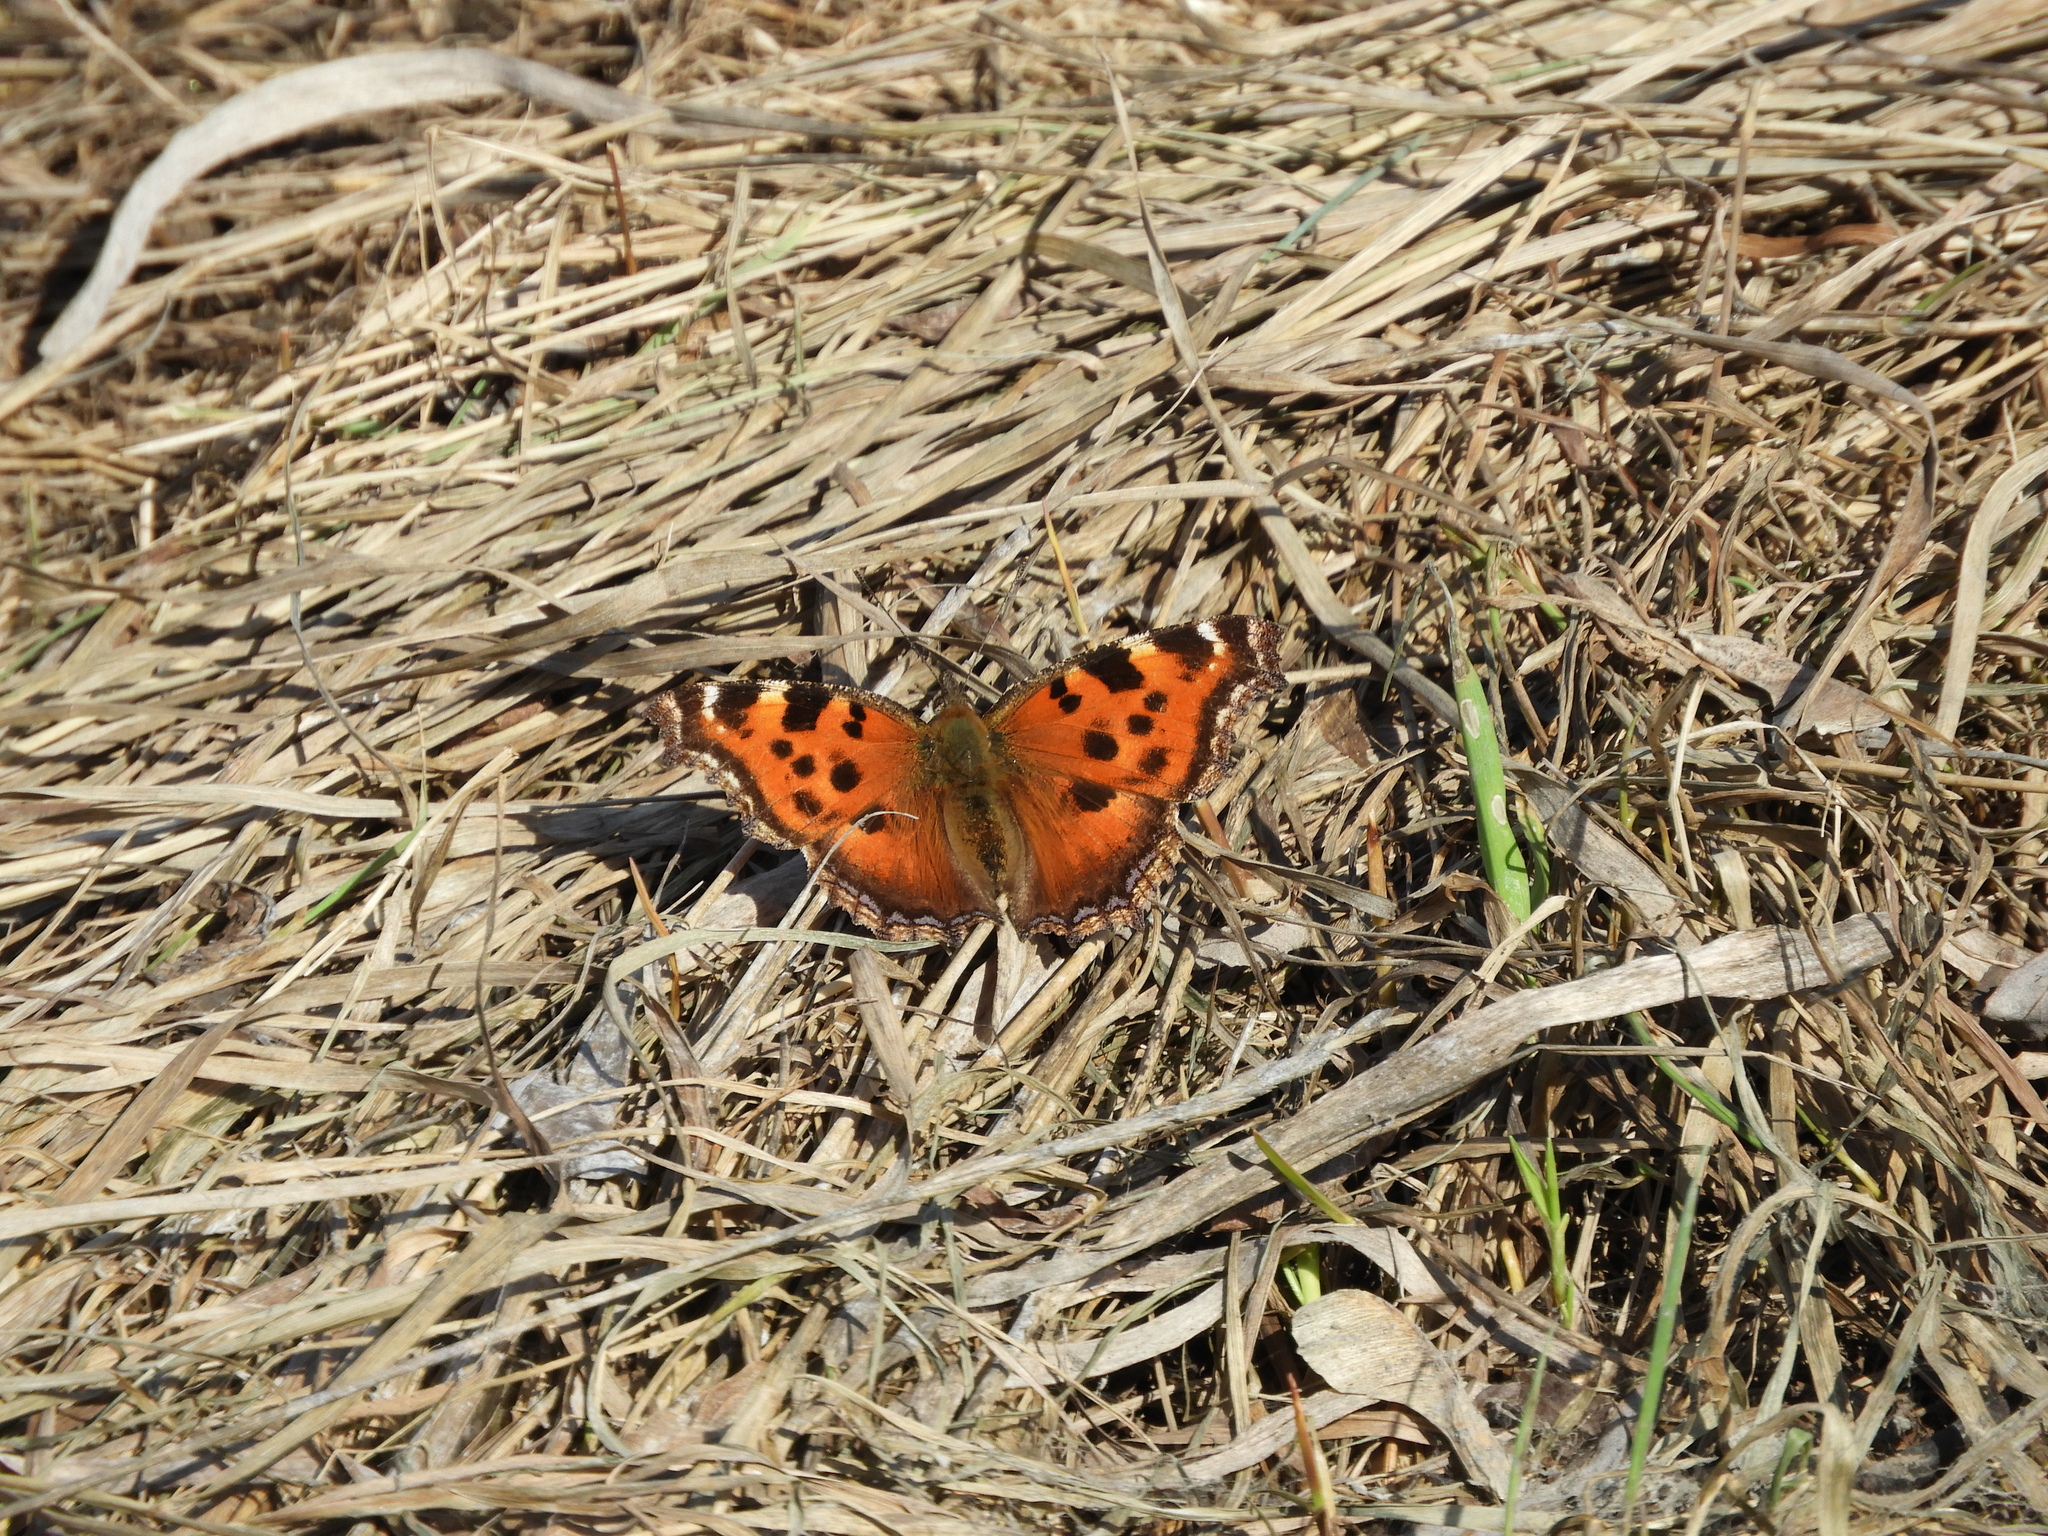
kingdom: Animalia
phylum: Arthropoda
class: Insecta
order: Lepidoptera
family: Nymphalidae
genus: Nymphalis
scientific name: Nymphalis xanthomelas
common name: Scarce tortoiseshell
